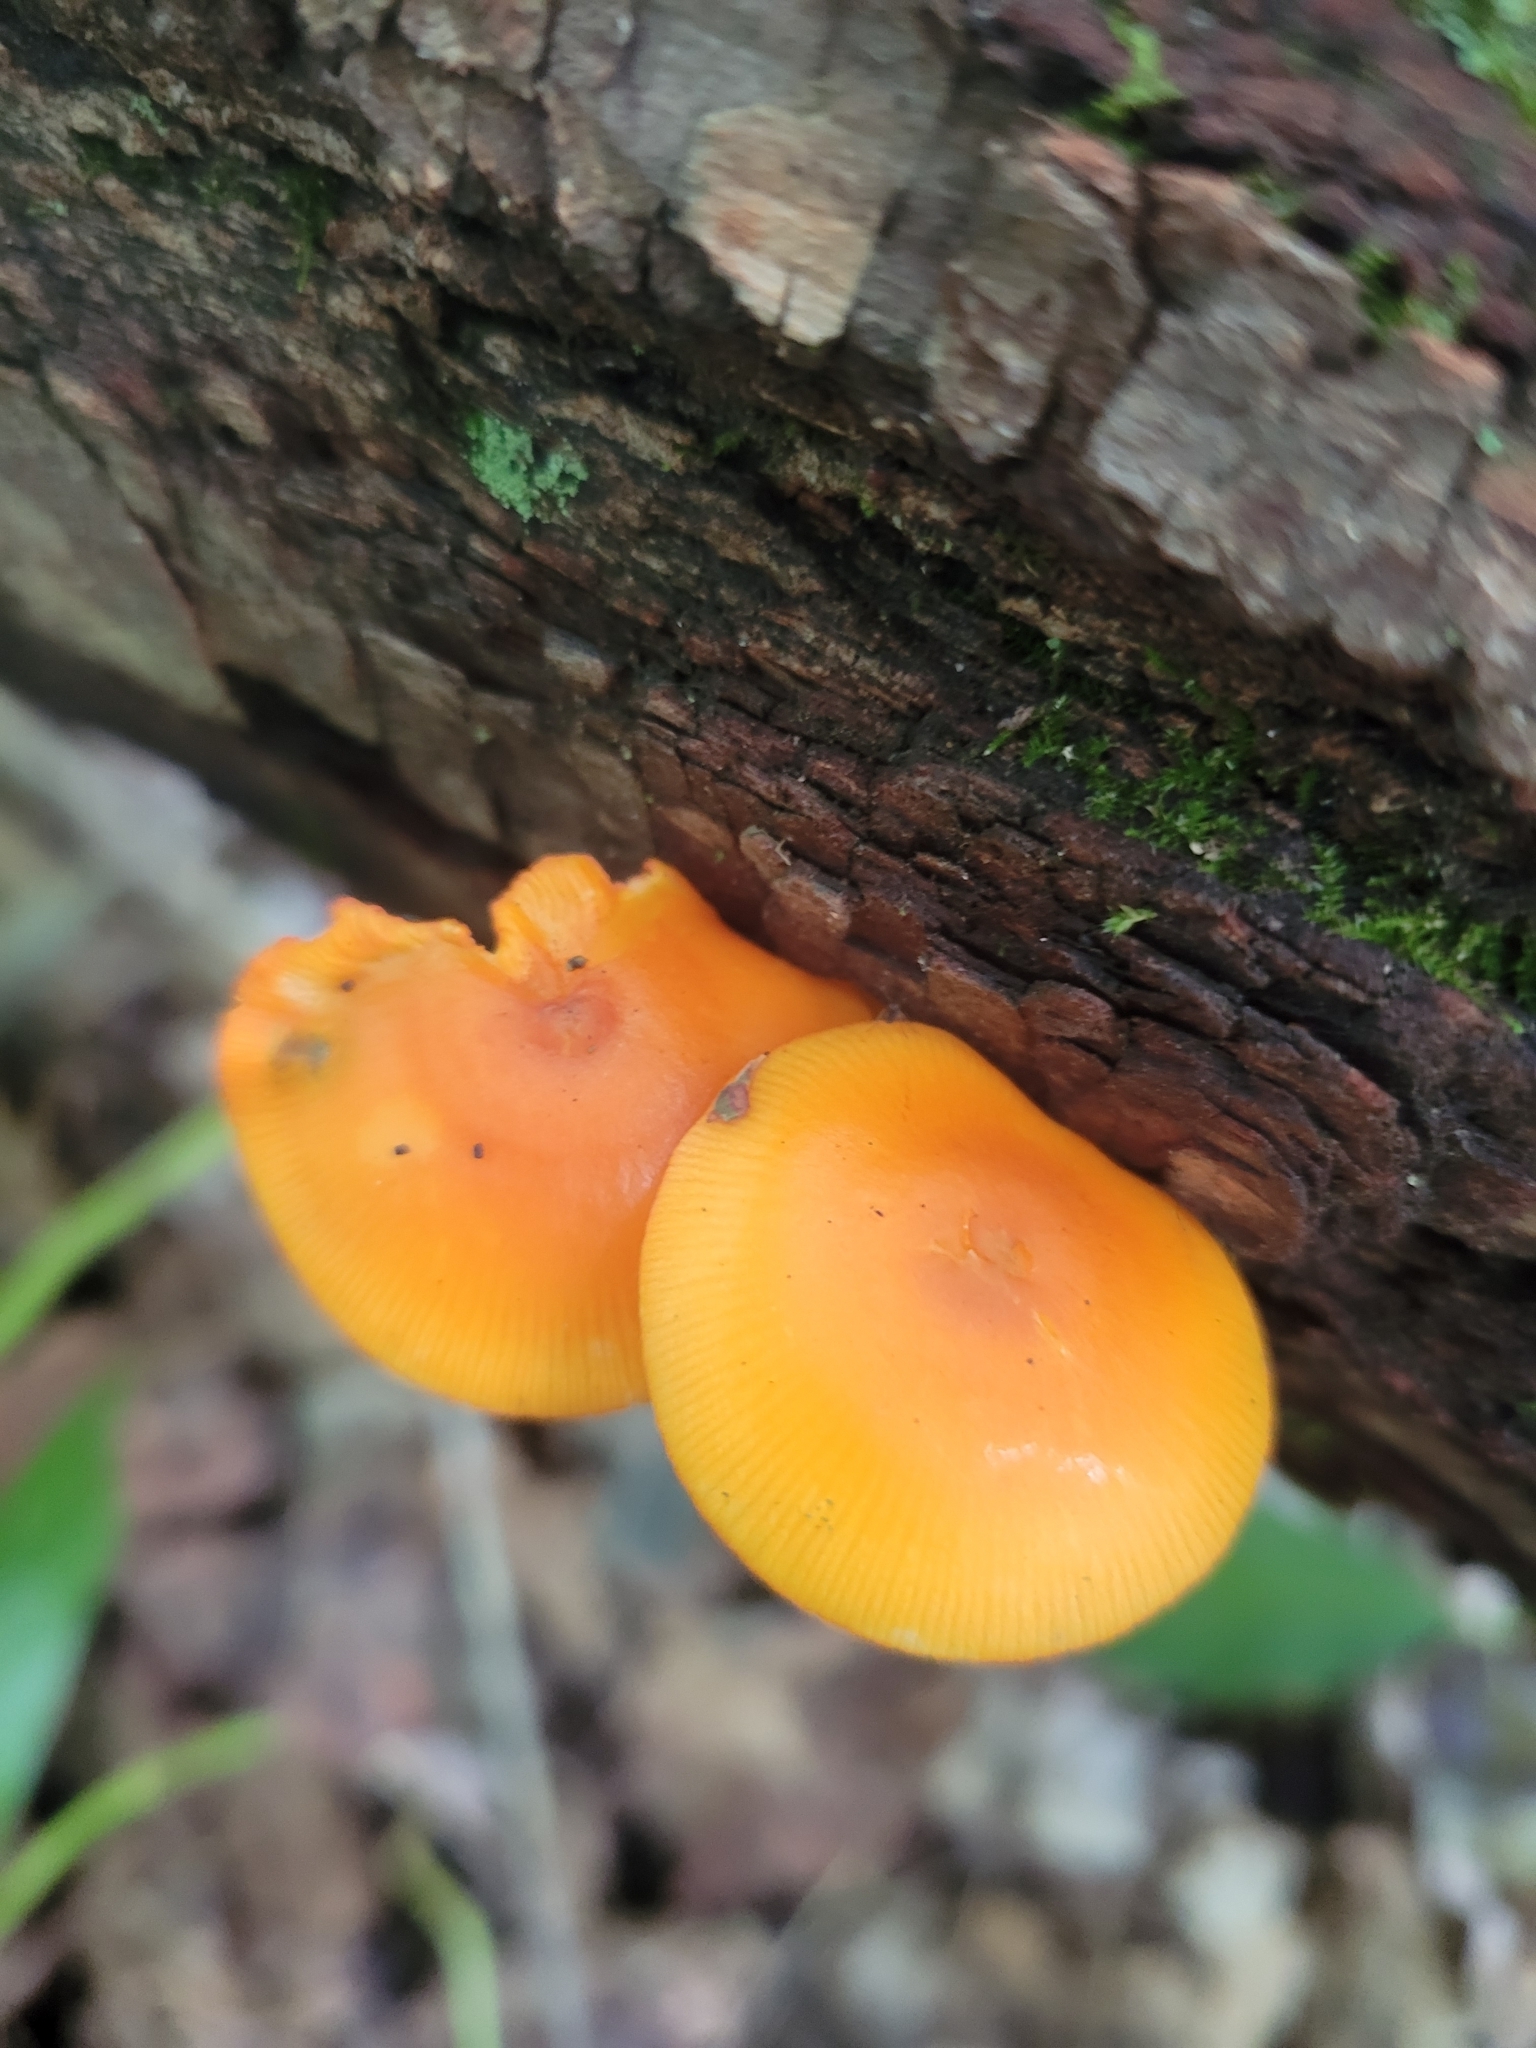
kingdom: Fungi
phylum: Basidiomycota
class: Agaricomycetes
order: Agaricales
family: Mycenaceae
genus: Mycena
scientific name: Mycena leaiana
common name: Orange mycena
